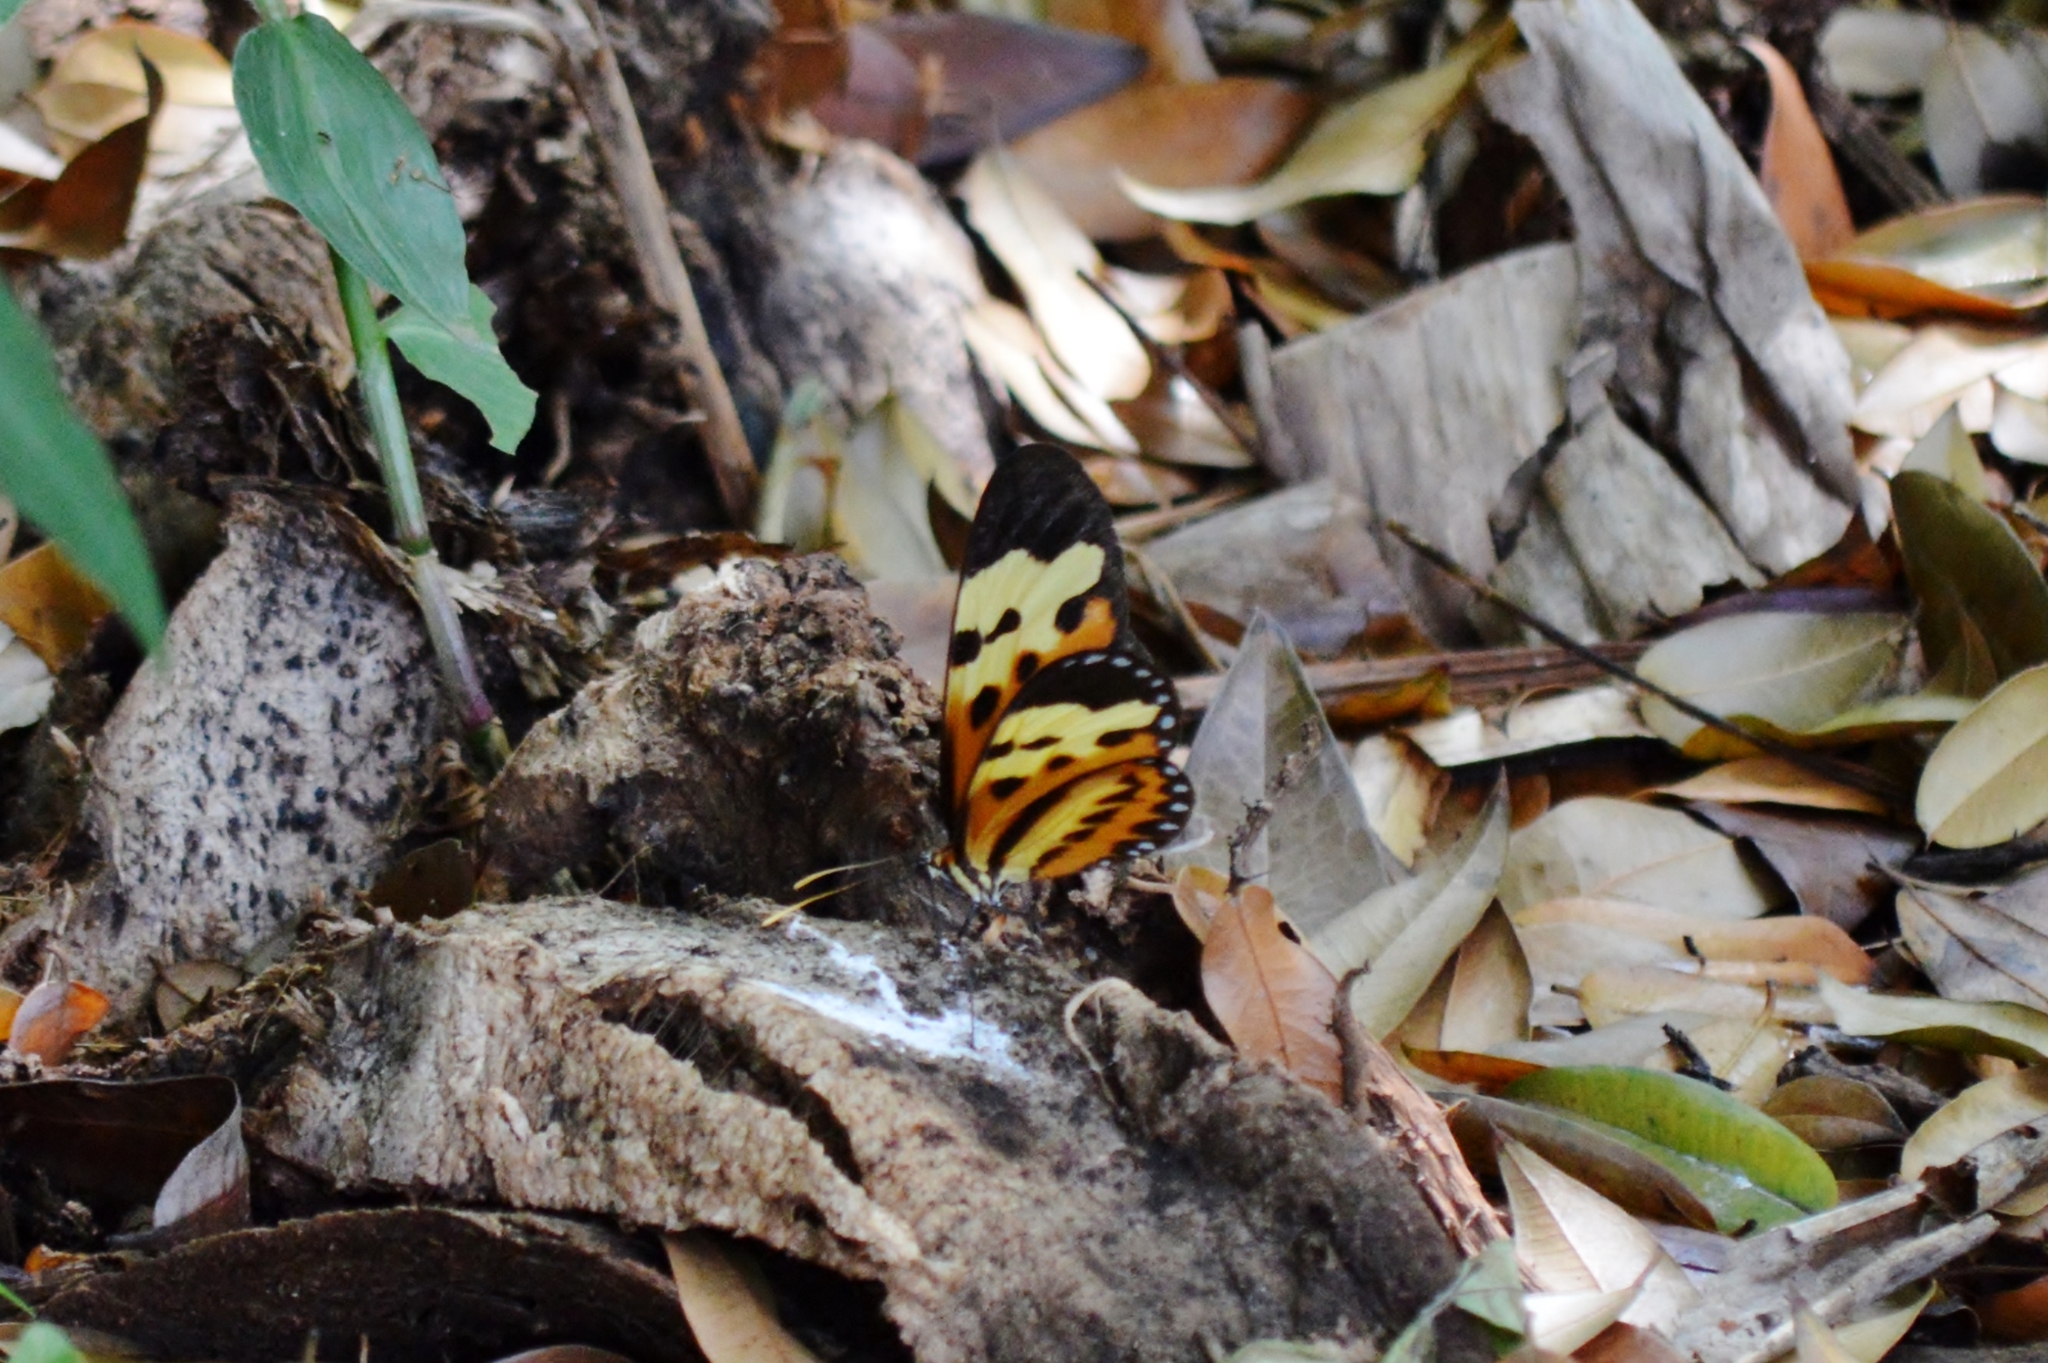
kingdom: Animalia
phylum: Arthropoda
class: Insecta
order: Lepidoptera
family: Nymphalidae
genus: Mechanitis
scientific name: Mechanitis polymnia
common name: Disturbed tigerwing
